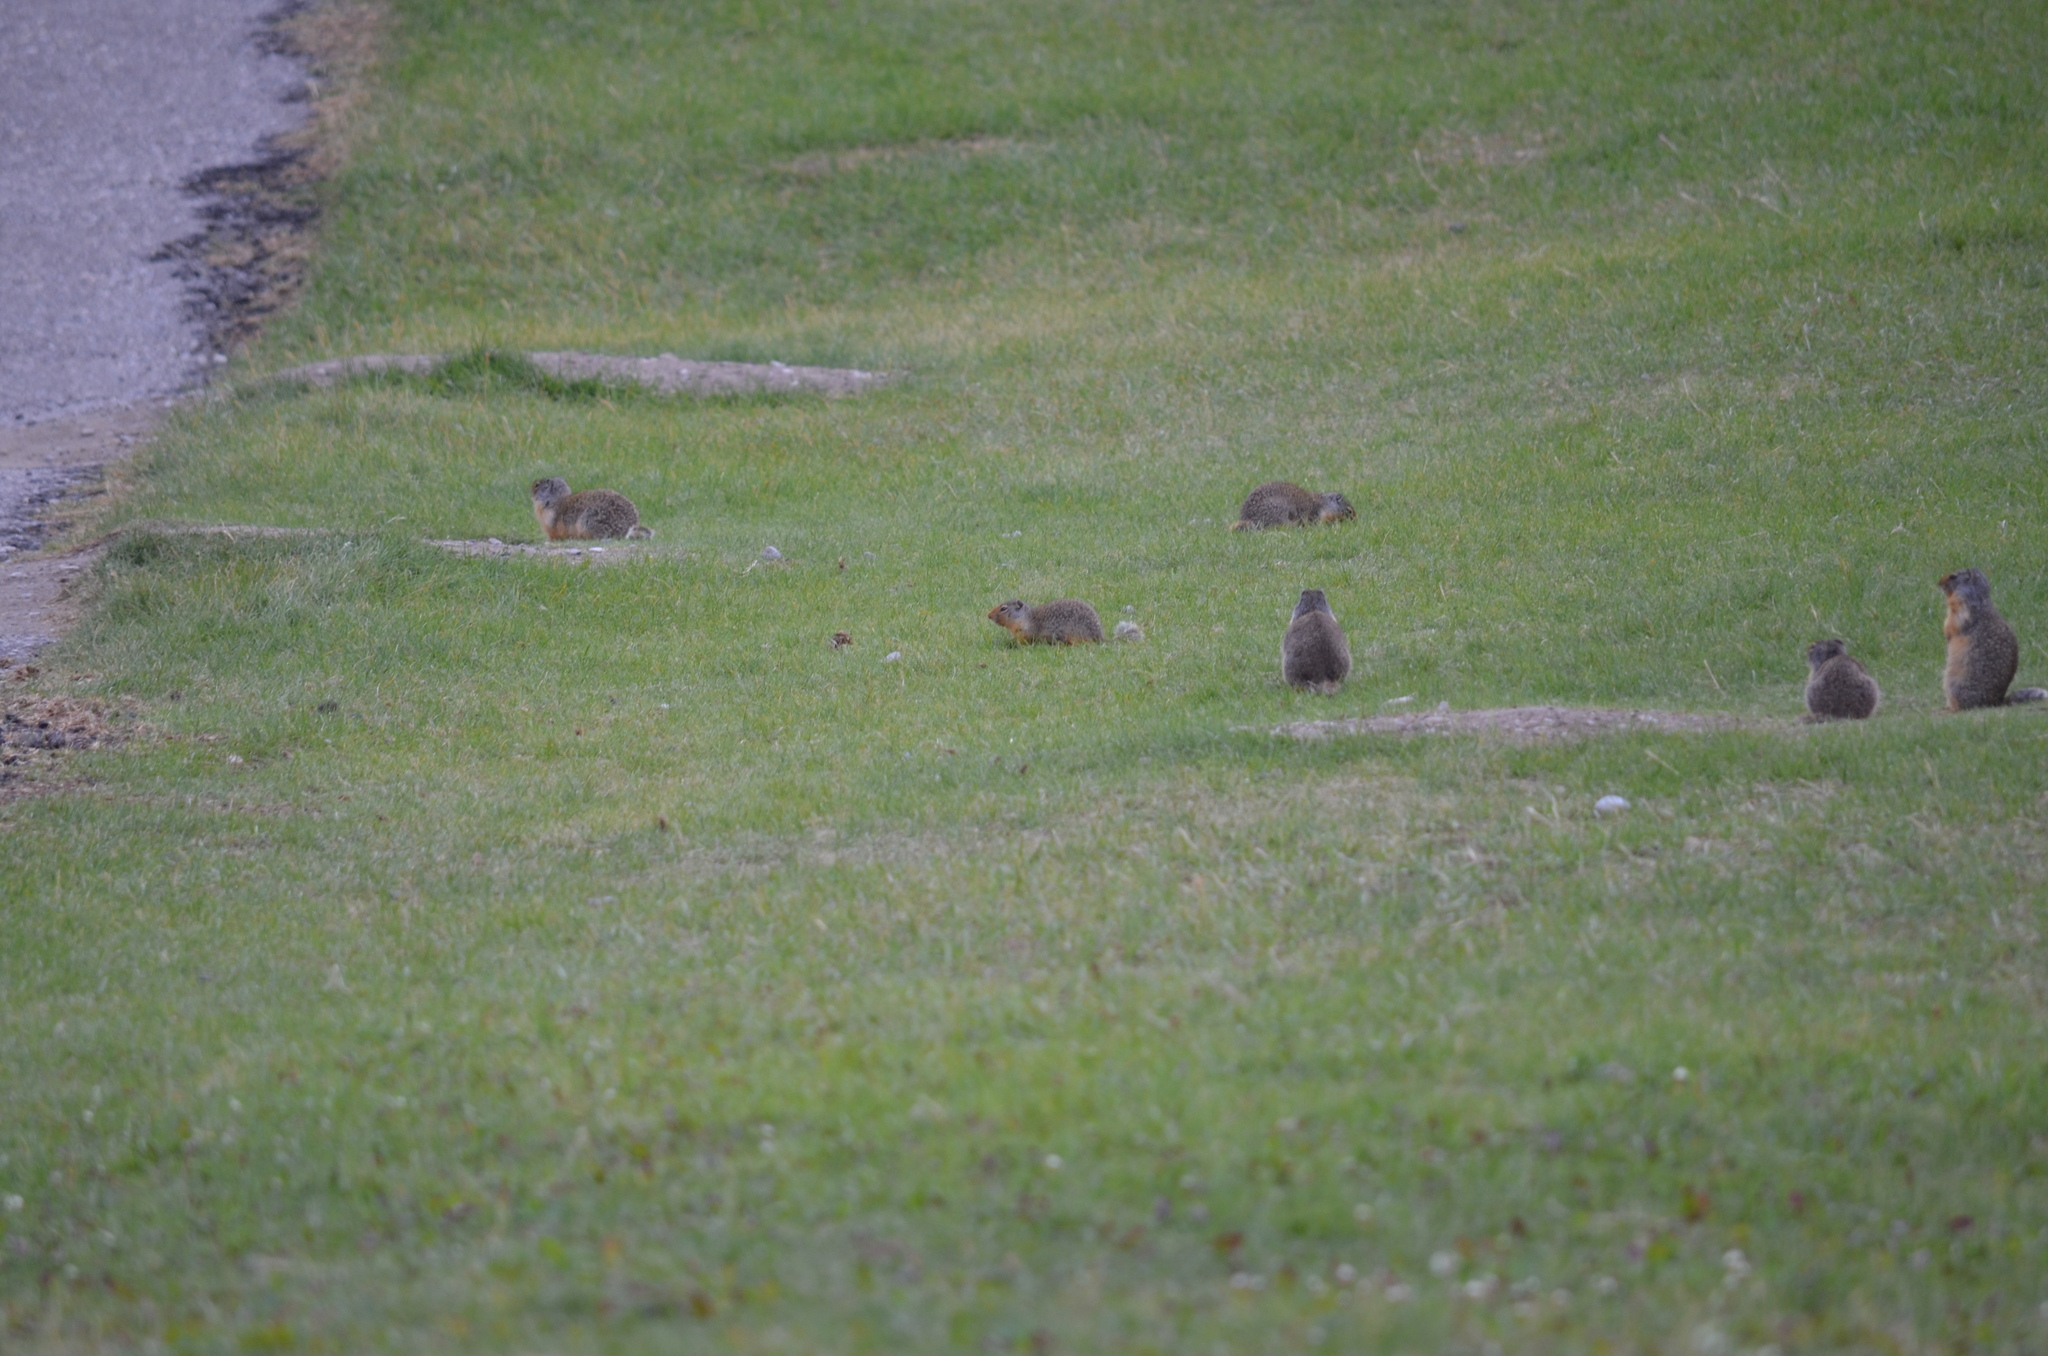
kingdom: Animalia
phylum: Chordata
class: Mammalia
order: Rodentia
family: Sciuridae
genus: Urocitellus
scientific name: Urocitellus columbianus
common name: Columbian ground squirrel
